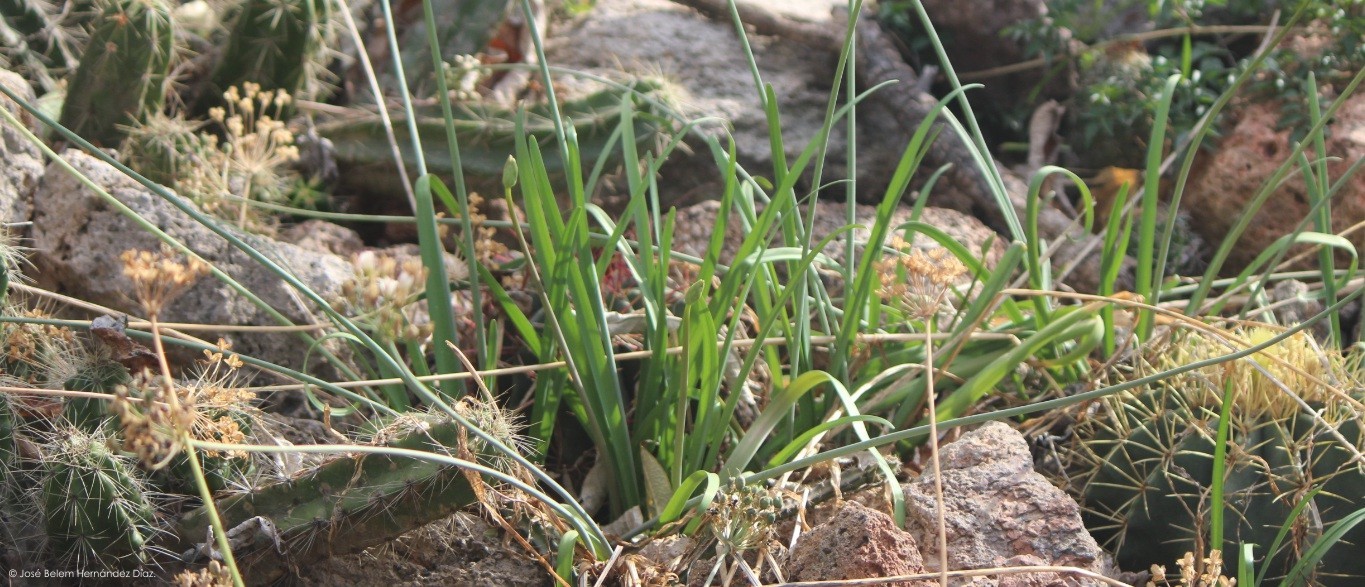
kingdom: Plantae
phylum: Tracheophyta
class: Liliopsida
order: Asparagales
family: Amaryllidaceae
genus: Nothoscordum
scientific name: Nothoscordum bivalve
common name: Crow-poison
